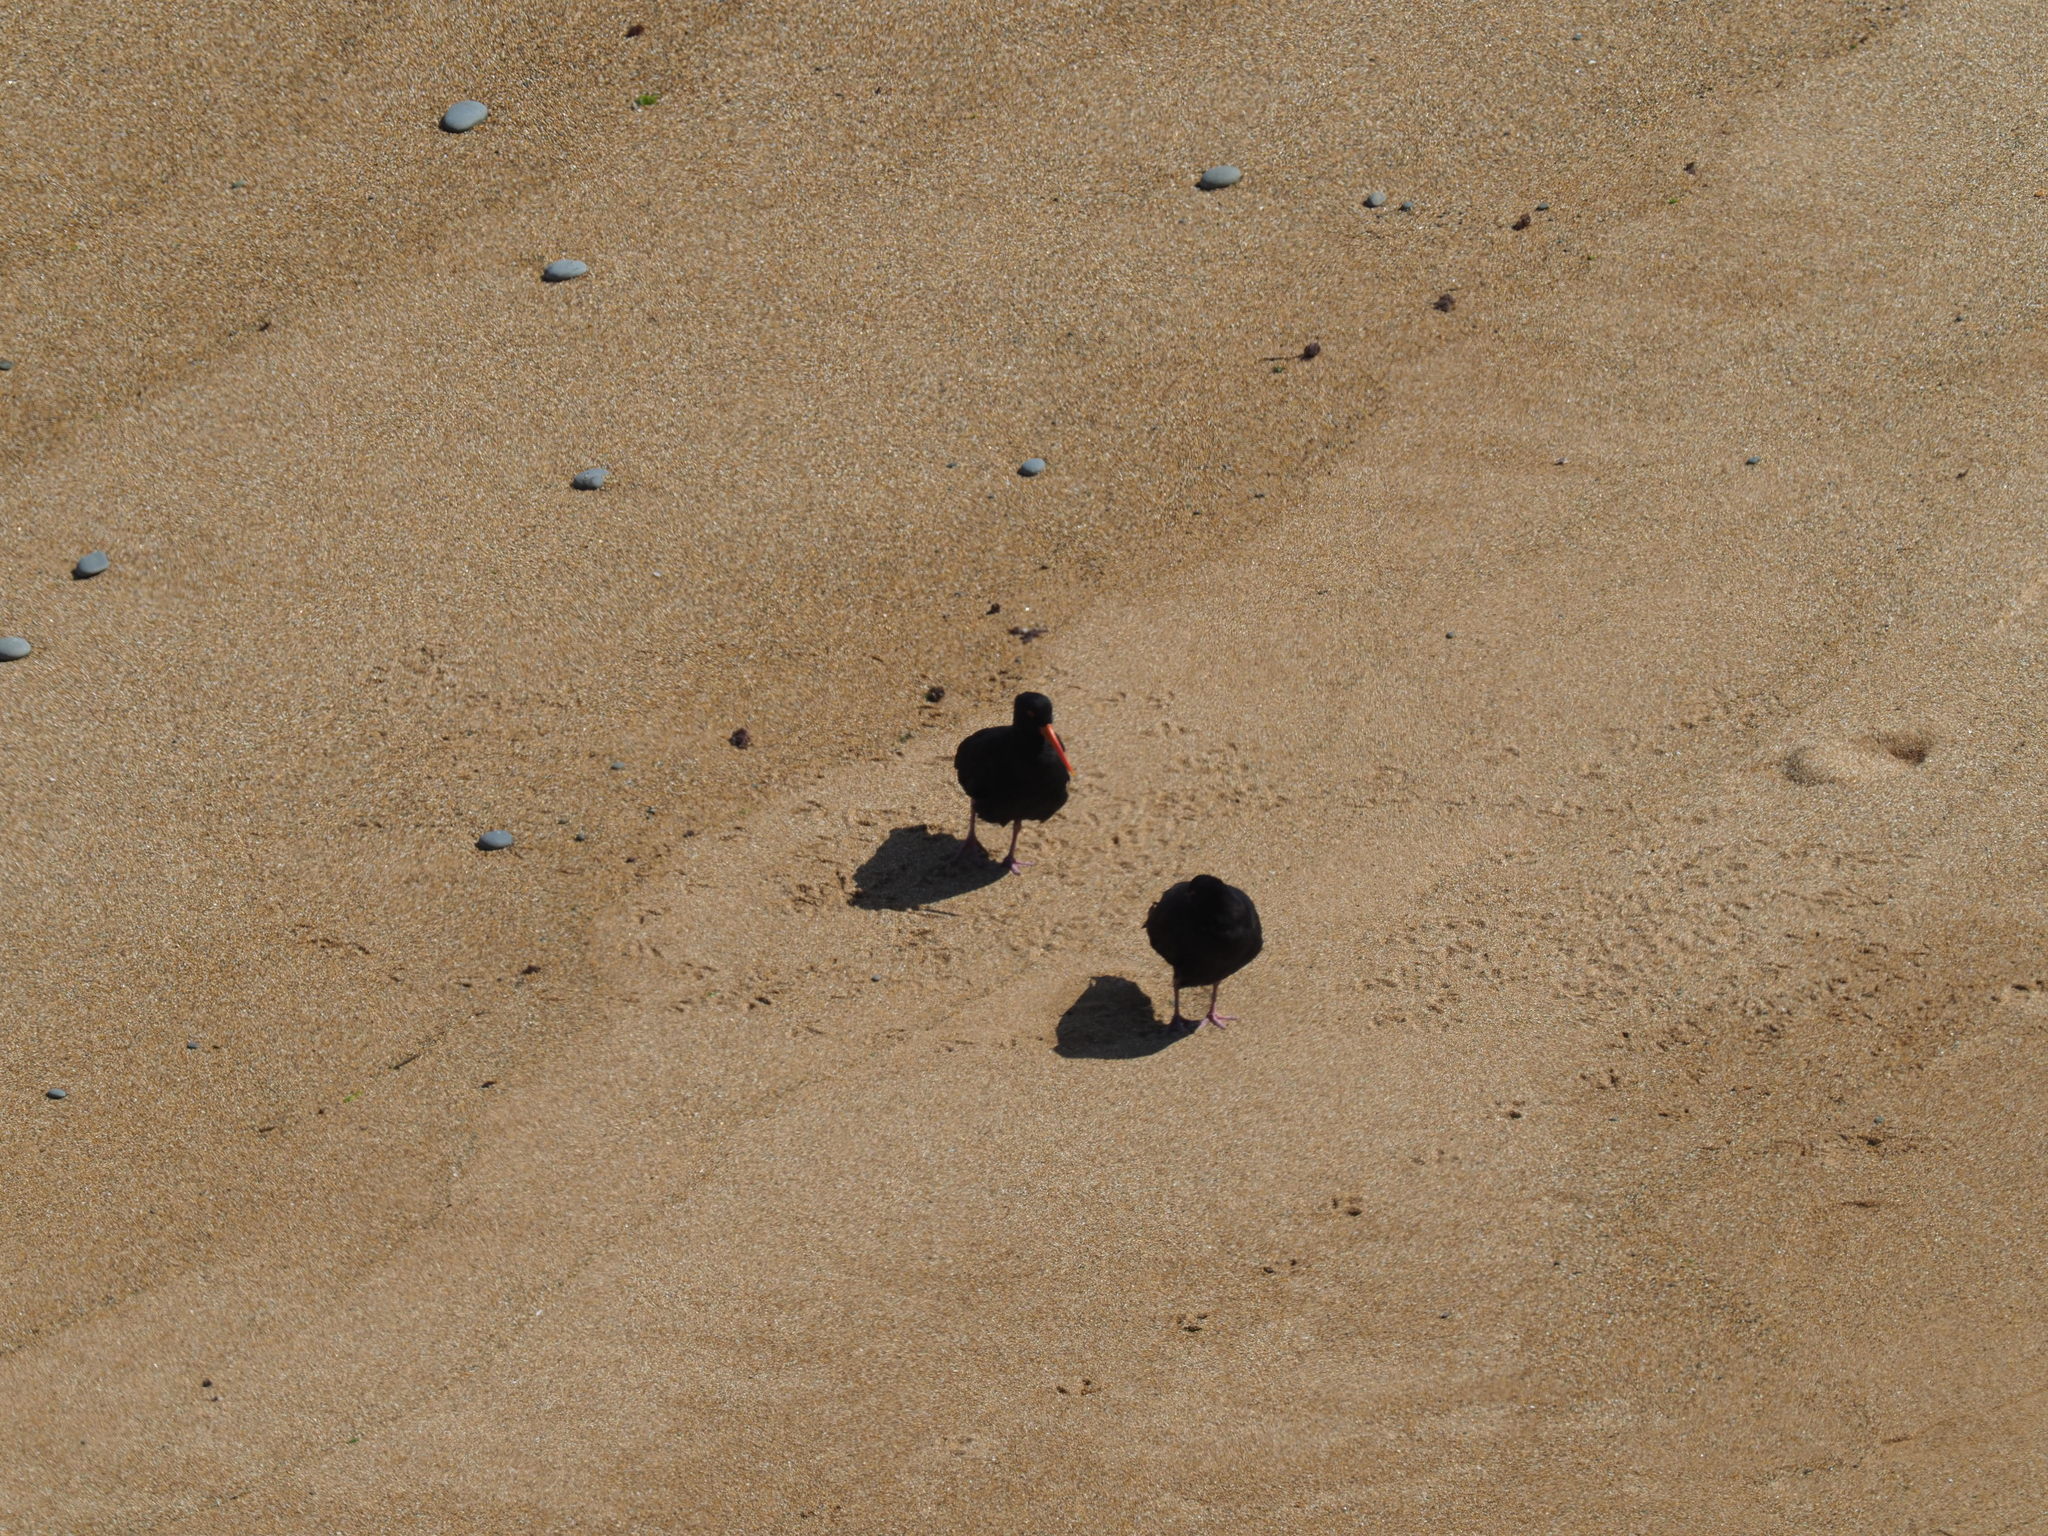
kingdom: Animalia
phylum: Chordata
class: Aves
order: Charadriiformes
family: Haematopodidae
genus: Haematopus
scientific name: Haematopus unicolor
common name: Variable oystercatcher
